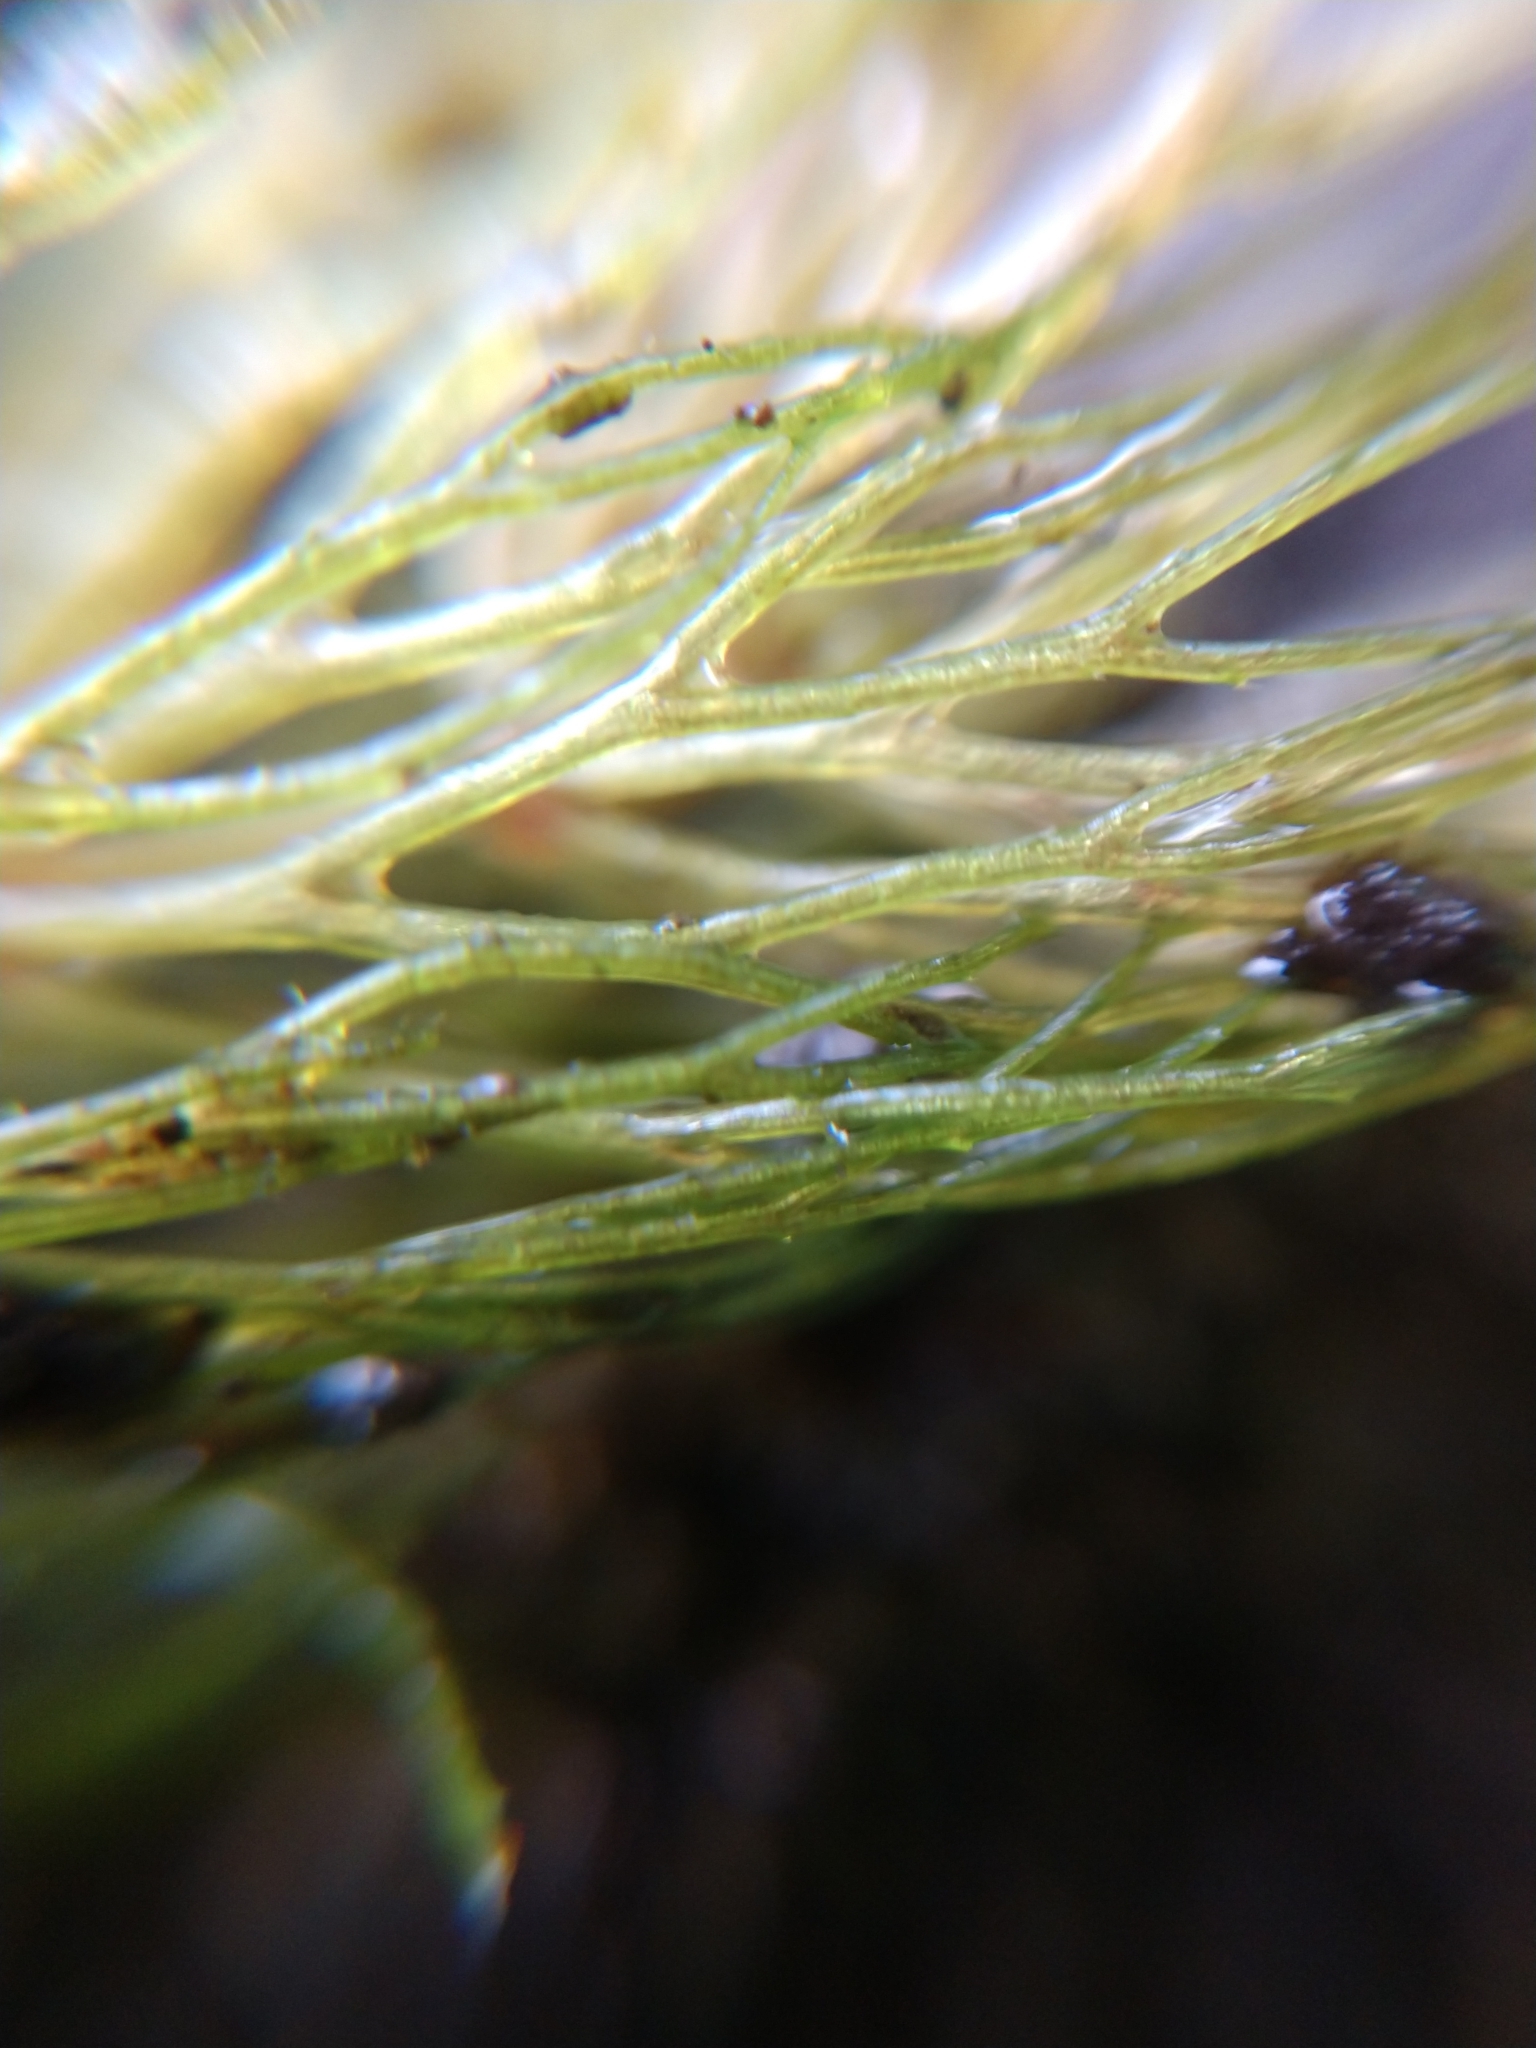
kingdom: Plantae
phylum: Tracheophyta
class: Magnoliopsida
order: Ceratophyllales
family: Ceratophyllaceae
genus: Ceratophyllum
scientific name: Ceratophyllum echinatum
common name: Prickly coontail
